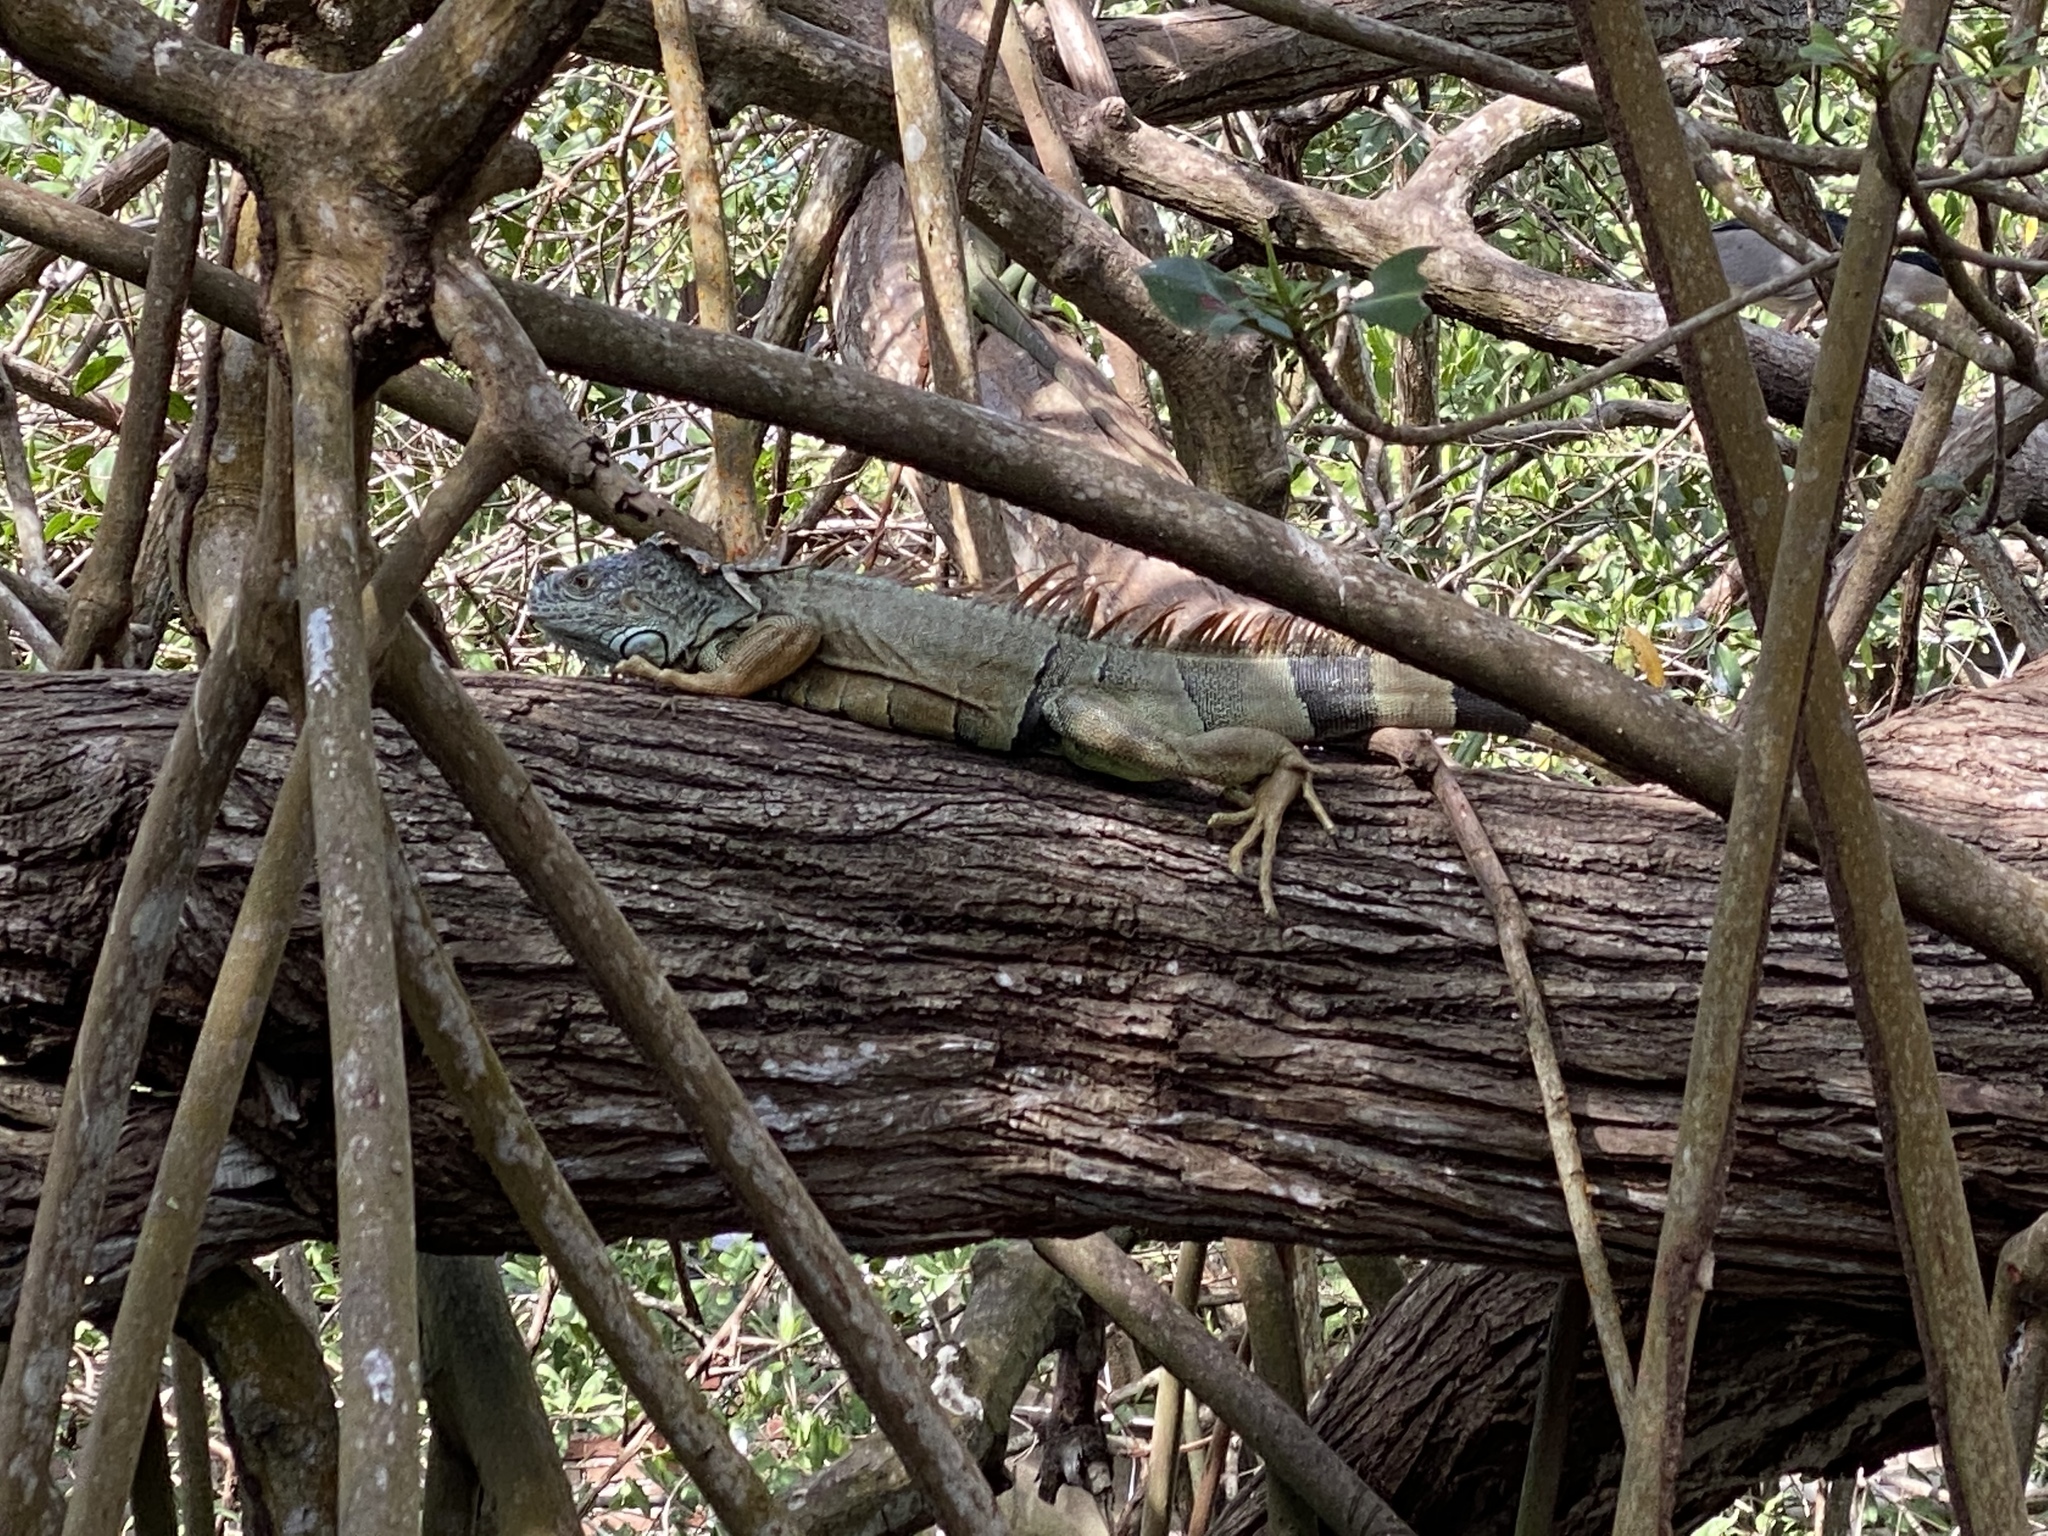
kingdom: Animalia
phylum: Chordata
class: Squamata
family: Iguanidae
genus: Iguana
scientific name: Iguana iguana
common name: Green iguana
